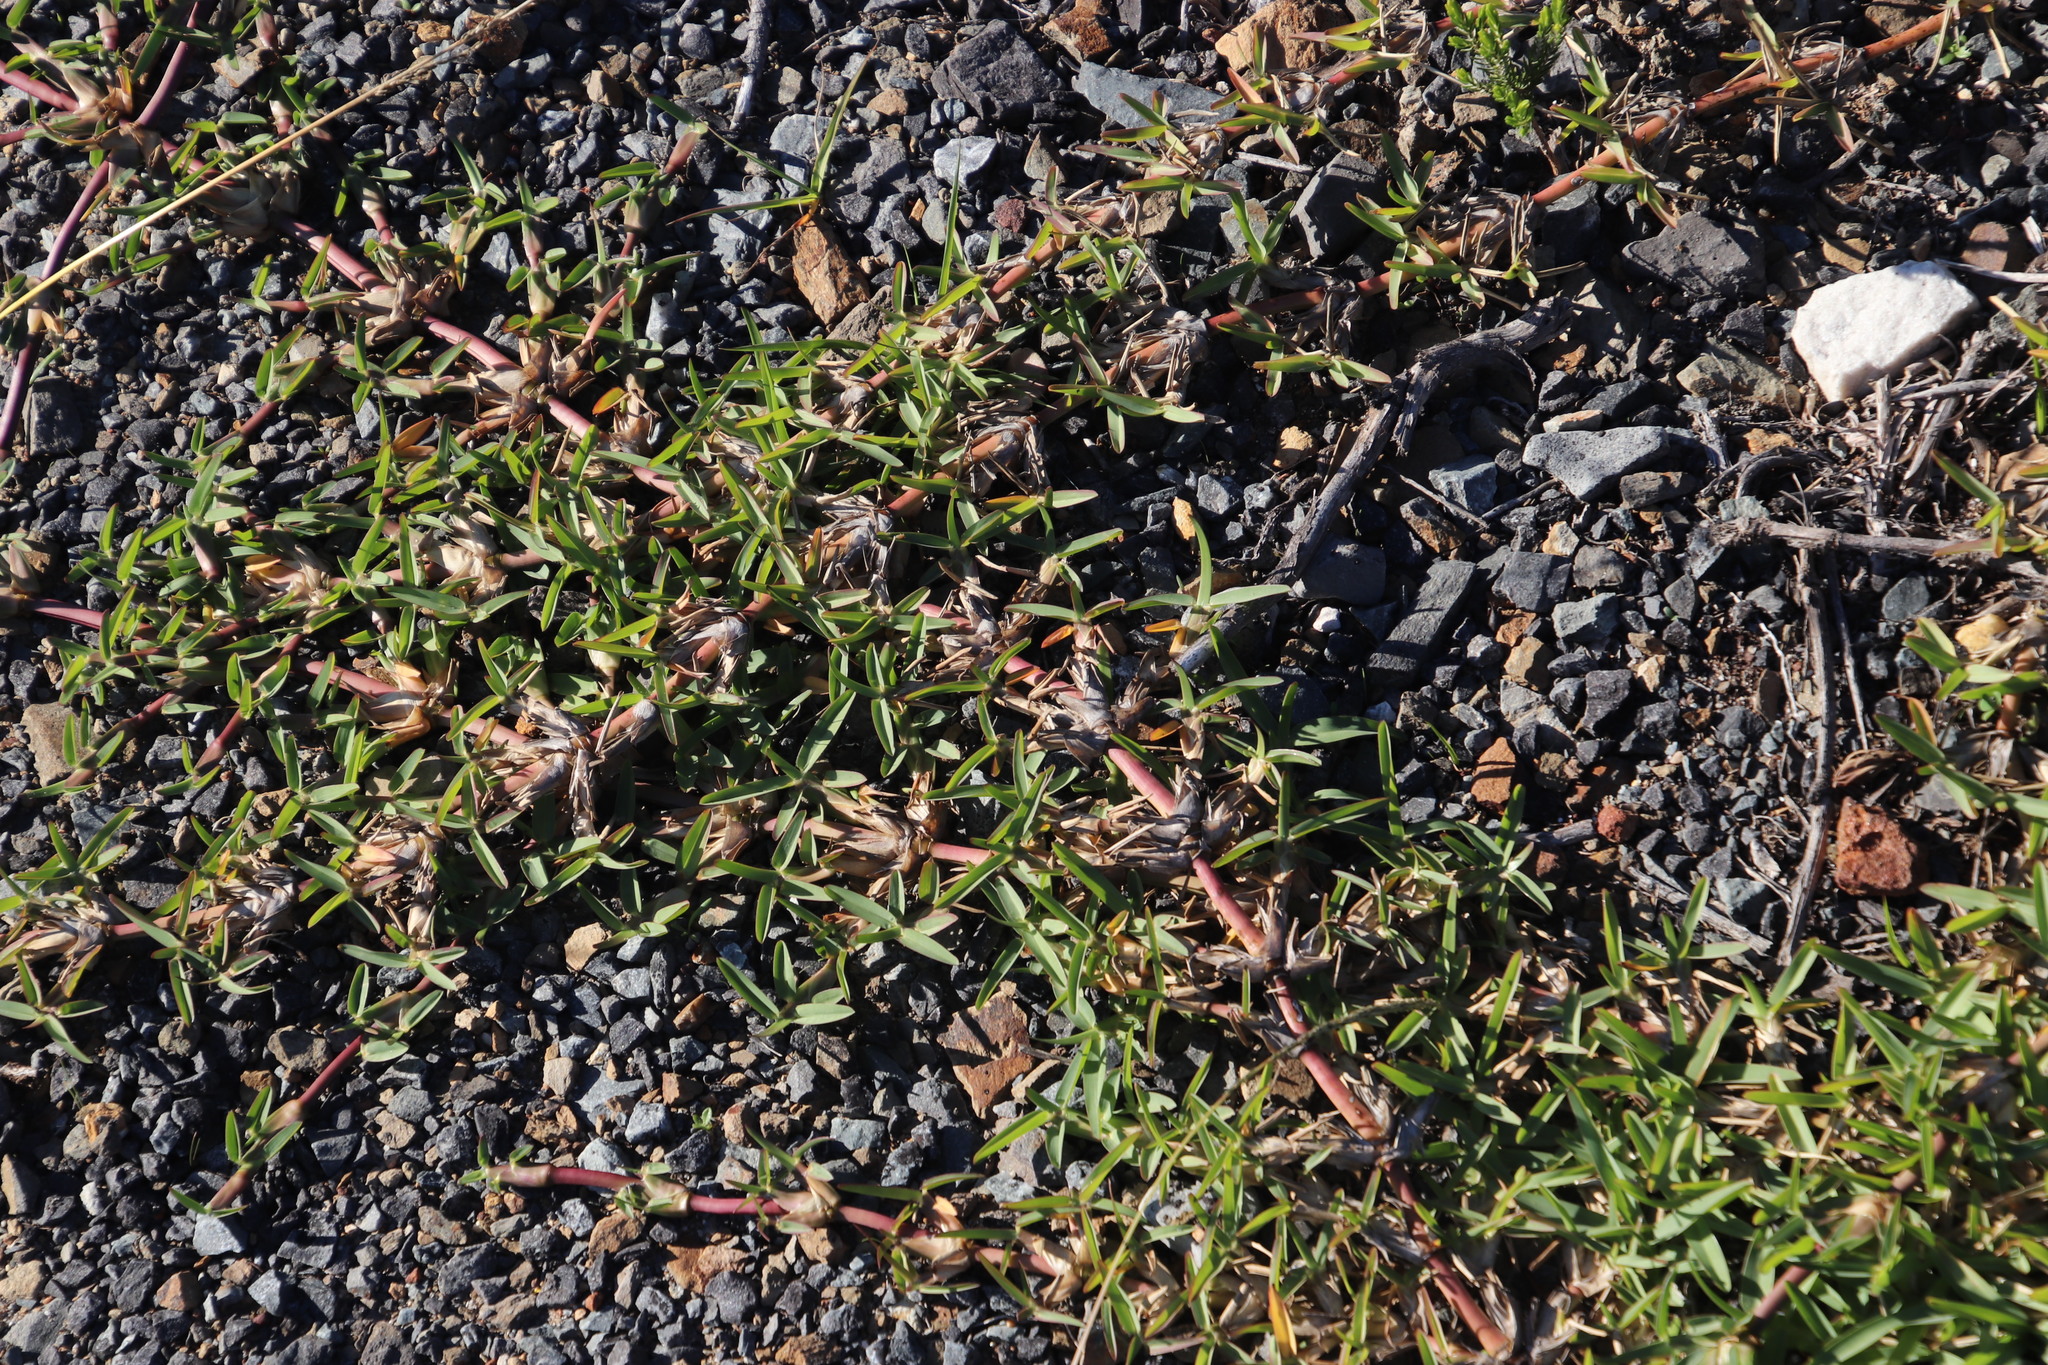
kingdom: Plantae
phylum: Tracheophyta
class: Liliopsida
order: Poales
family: Poaceae
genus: Stenotaphrum
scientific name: Stenotaphrum secundatum
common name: St. augustine grass
